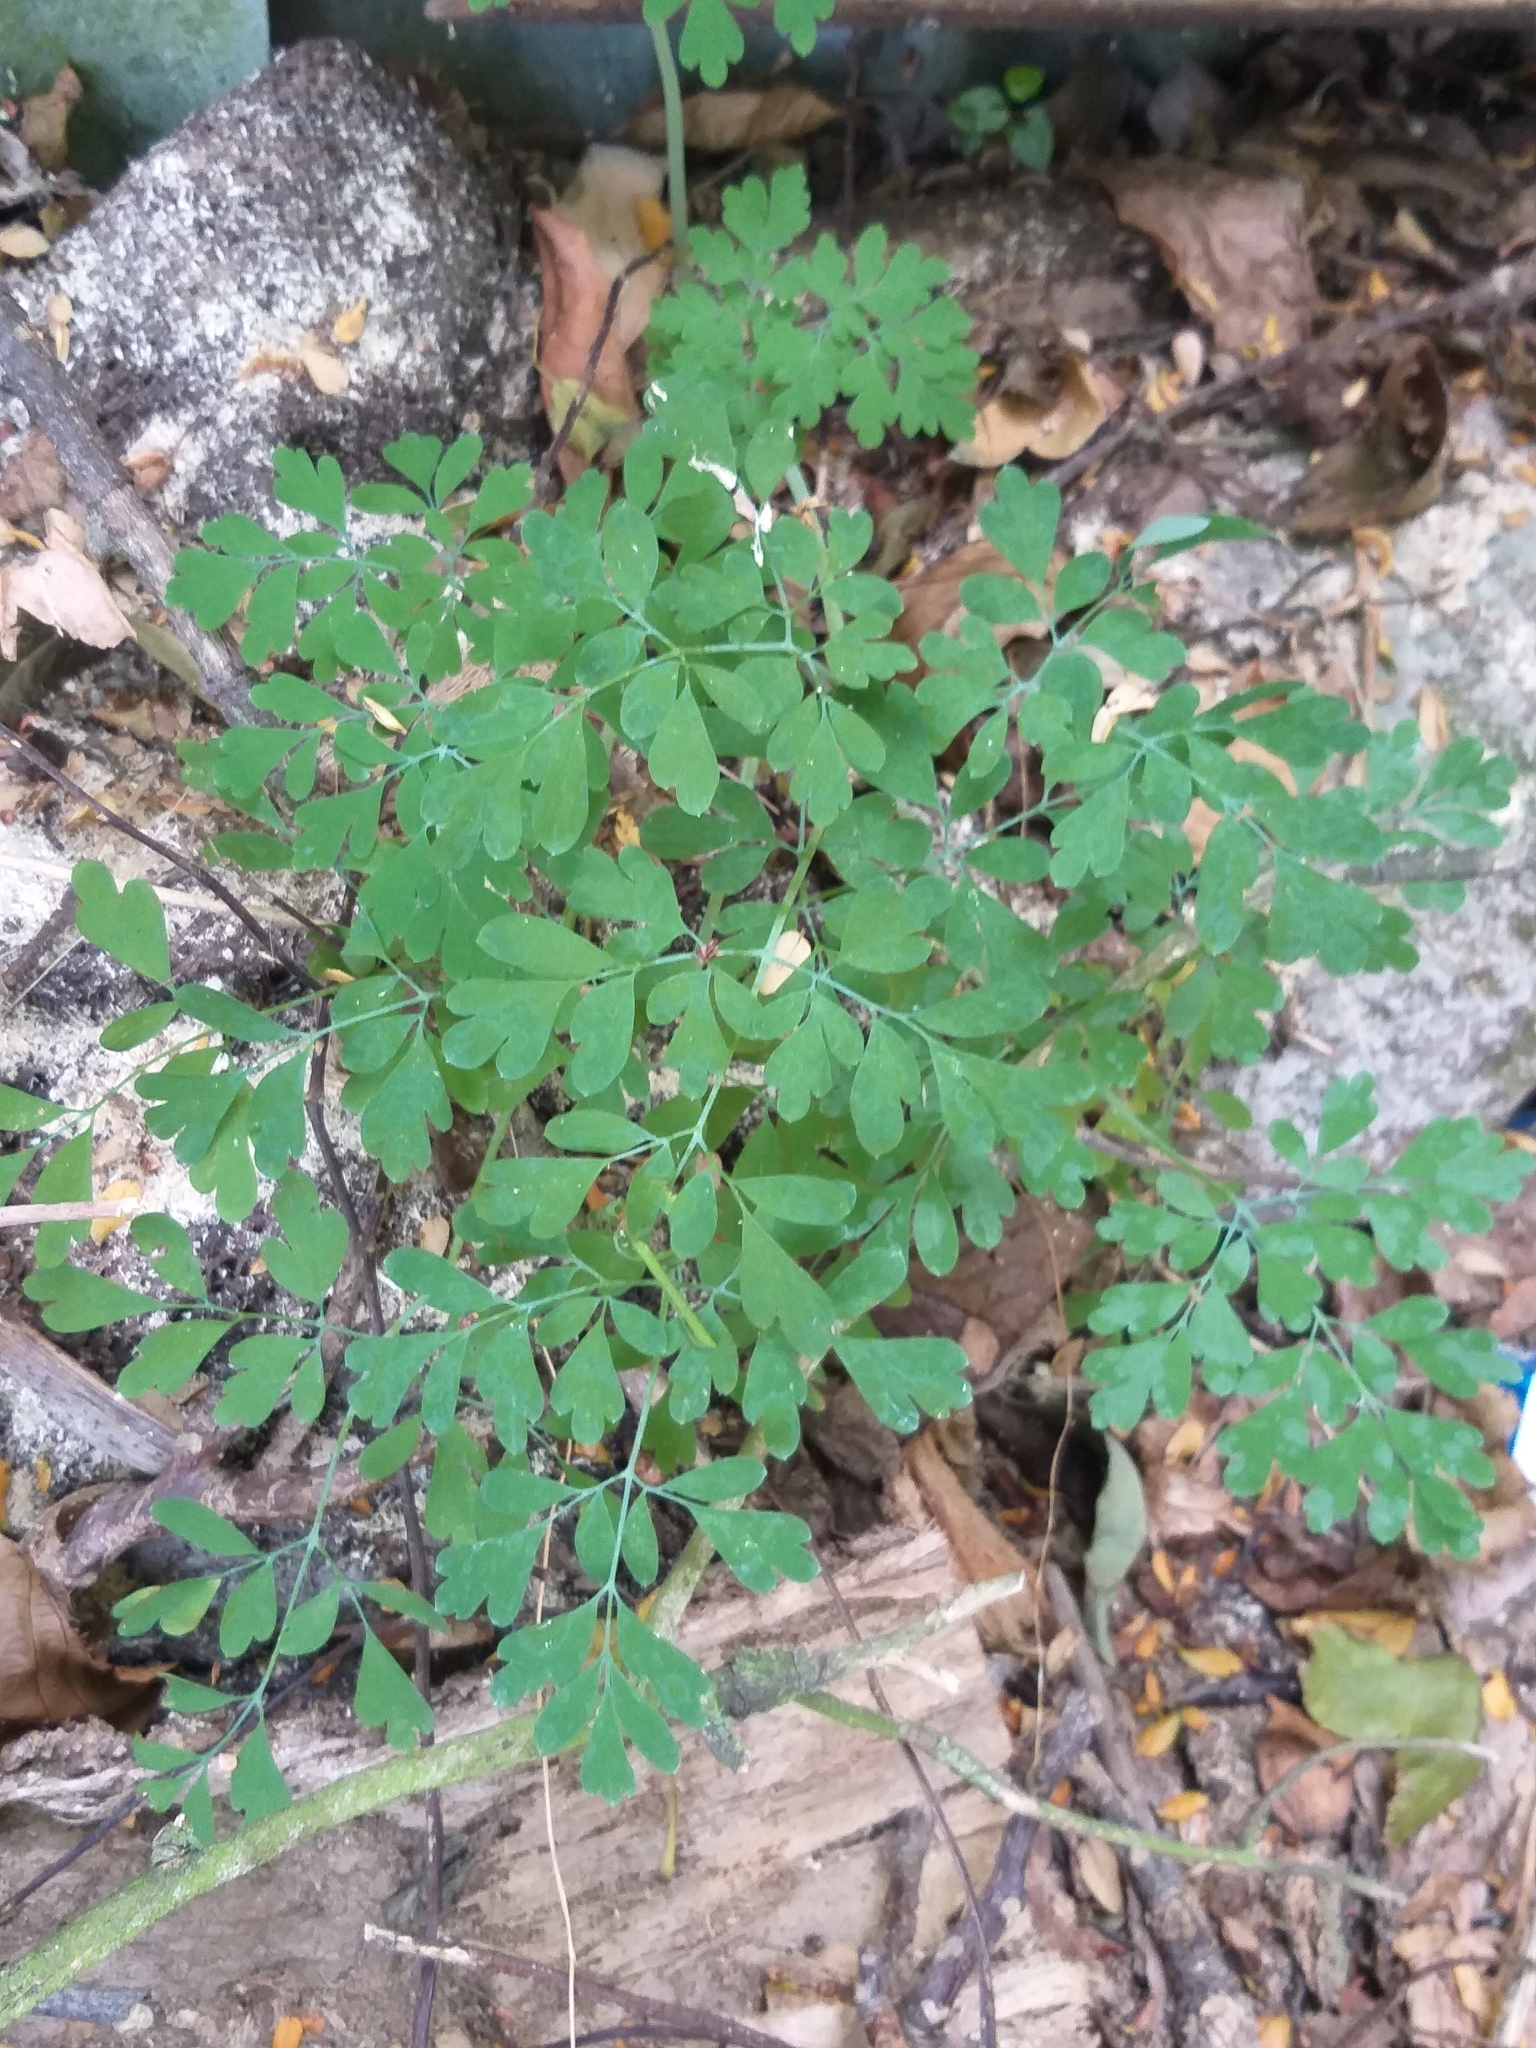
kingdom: Plantae
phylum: Tracheophyta
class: Magnoliopsida
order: Ranunculales
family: Papaveraceae
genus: Fumaria
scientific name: Fumaria muralis
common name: Common ramping-fumitory
